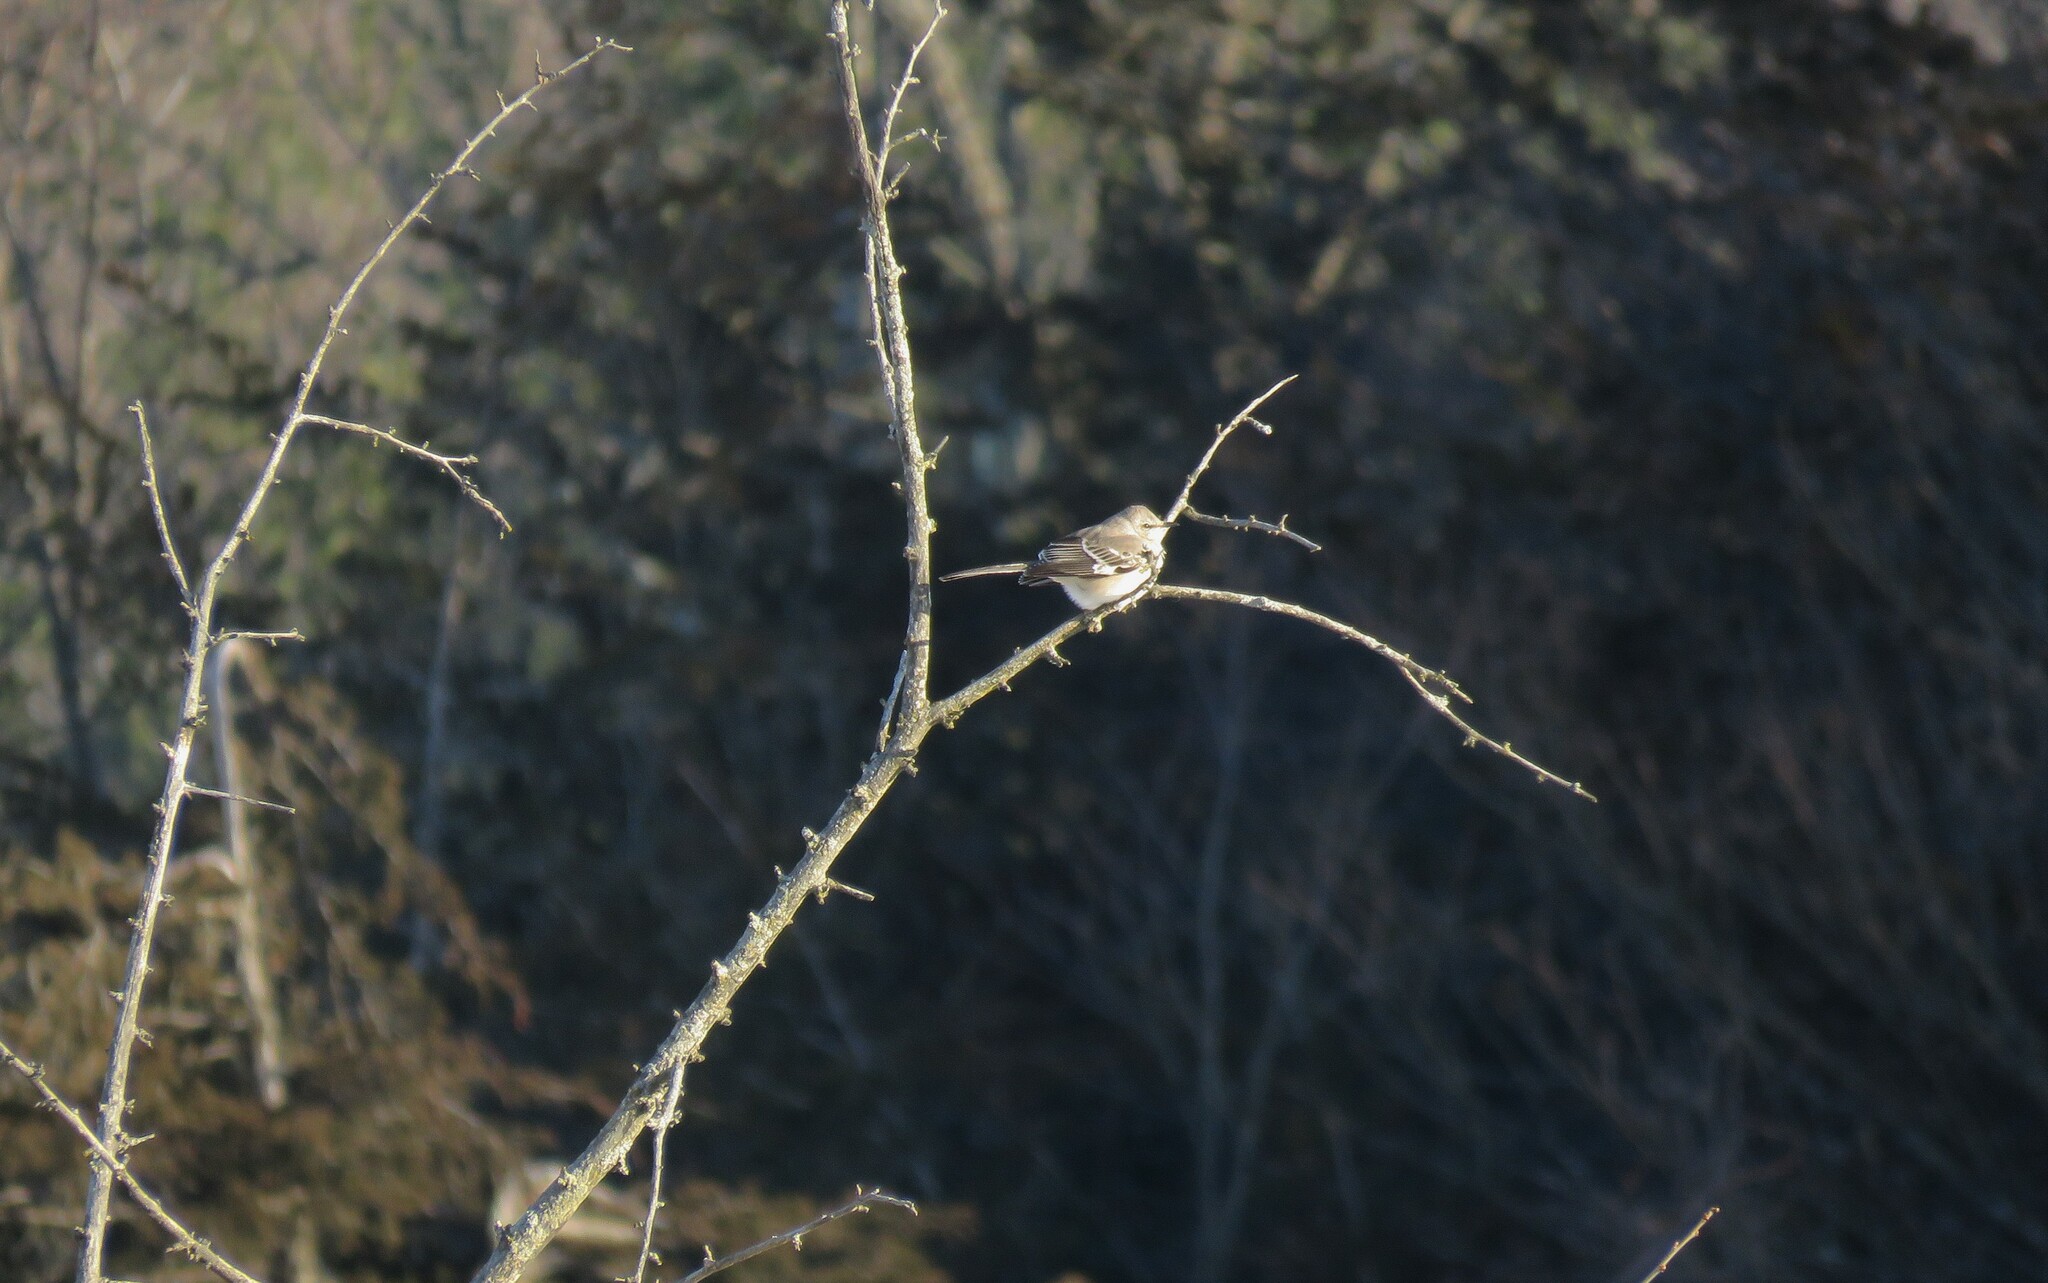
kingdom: Animalia
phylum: Chordata
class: Aves
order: Passeriformes
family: Mimidae
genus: Mimus
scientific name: Mimus polyglottos
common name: Northern mockingbird
